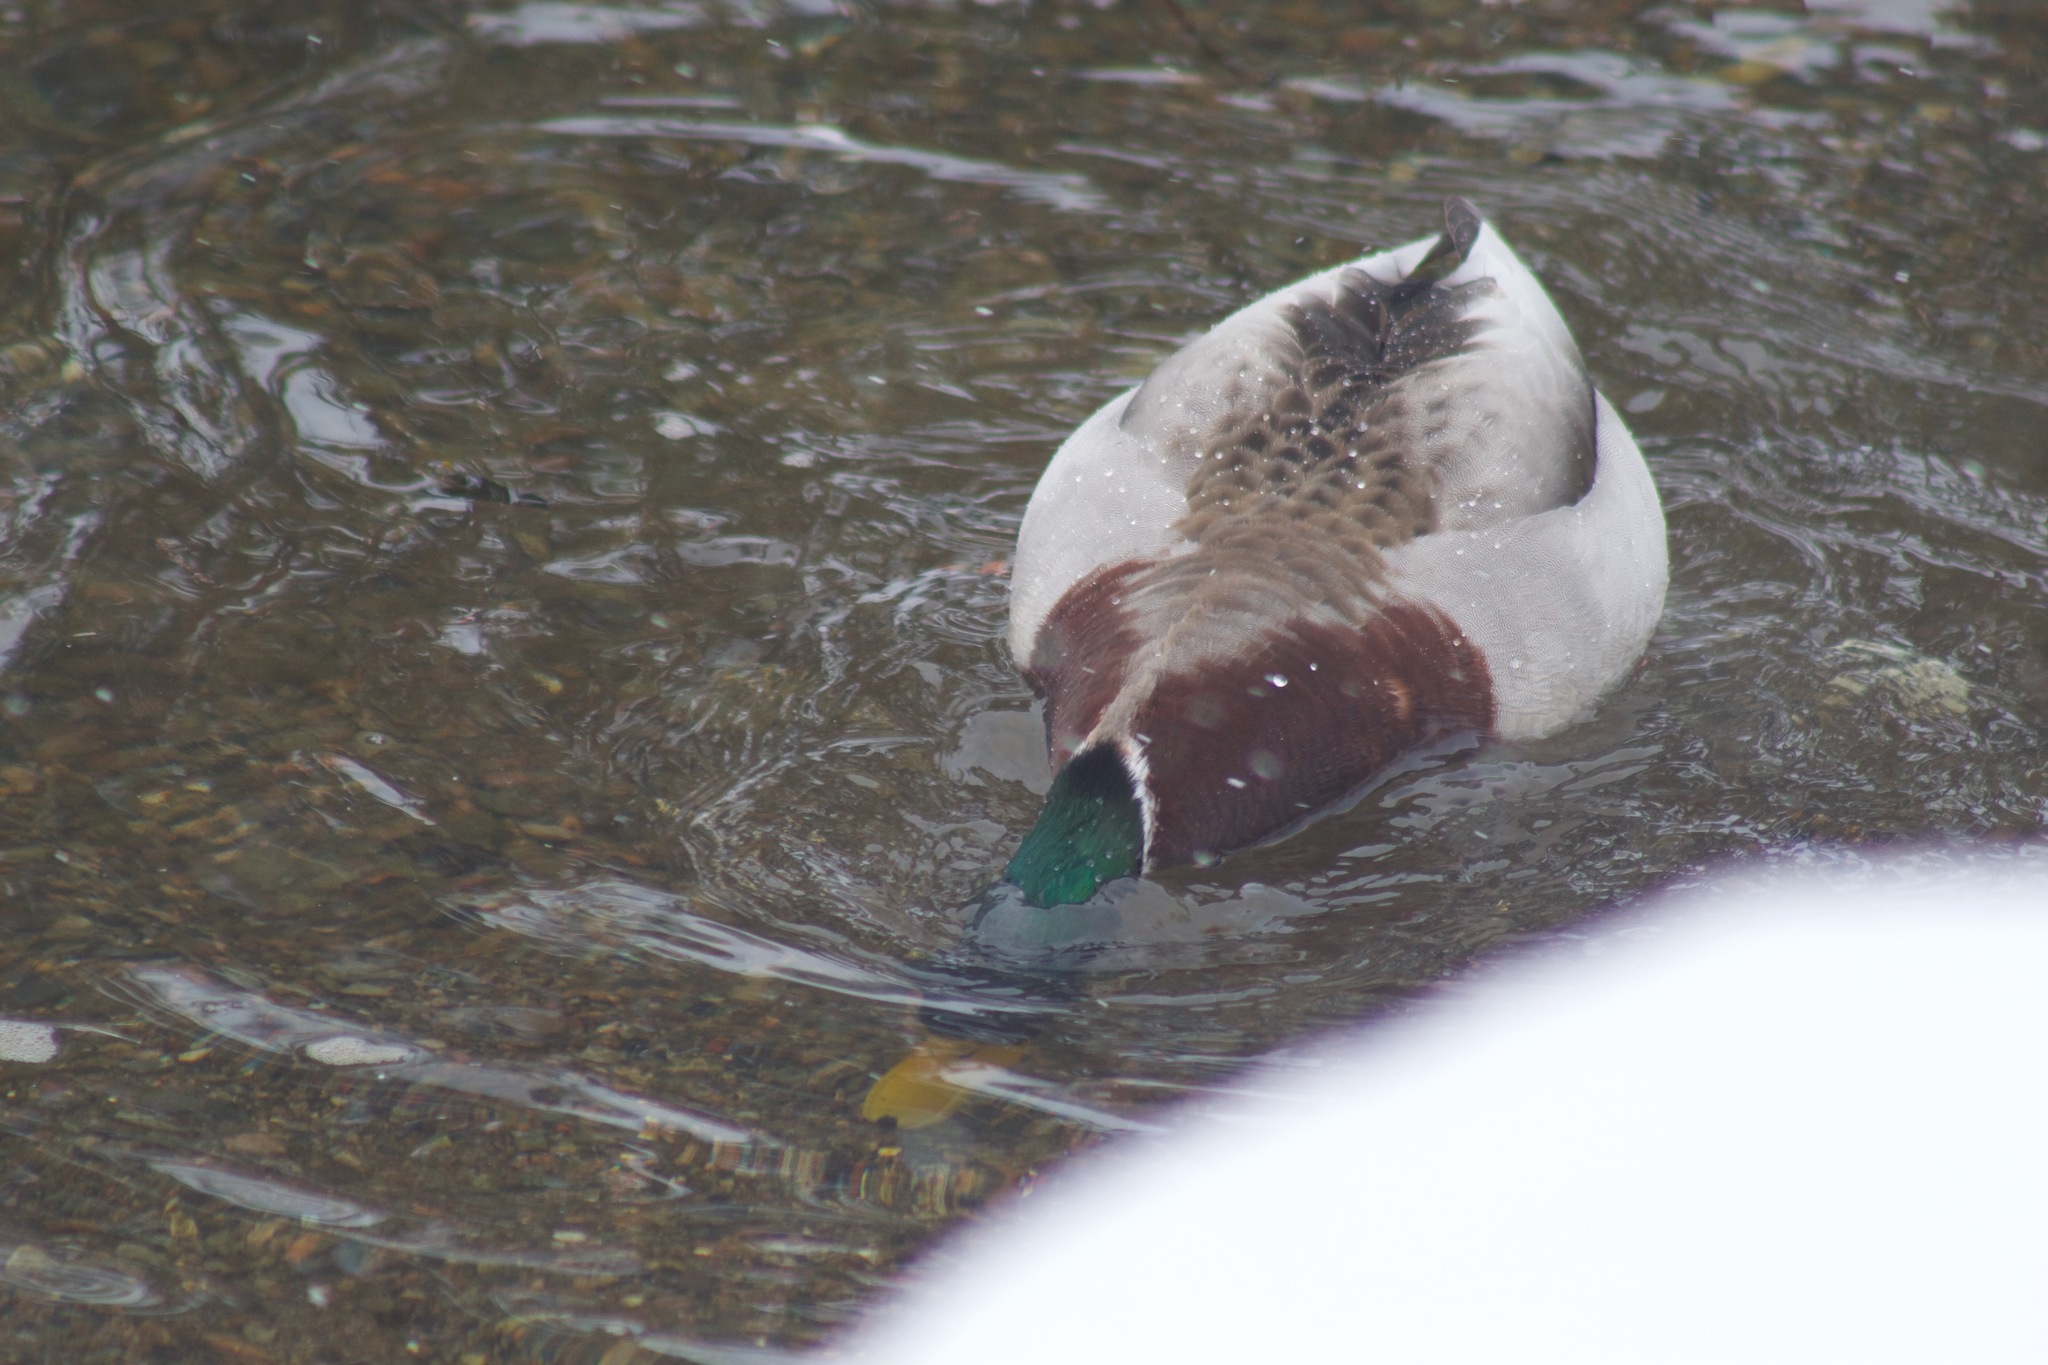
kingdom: Animalia
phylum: Chordata
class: Aves
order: Anseriformes
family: Anatidae
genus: Anas
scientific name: Anas platyrhynchos
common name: Mallard
